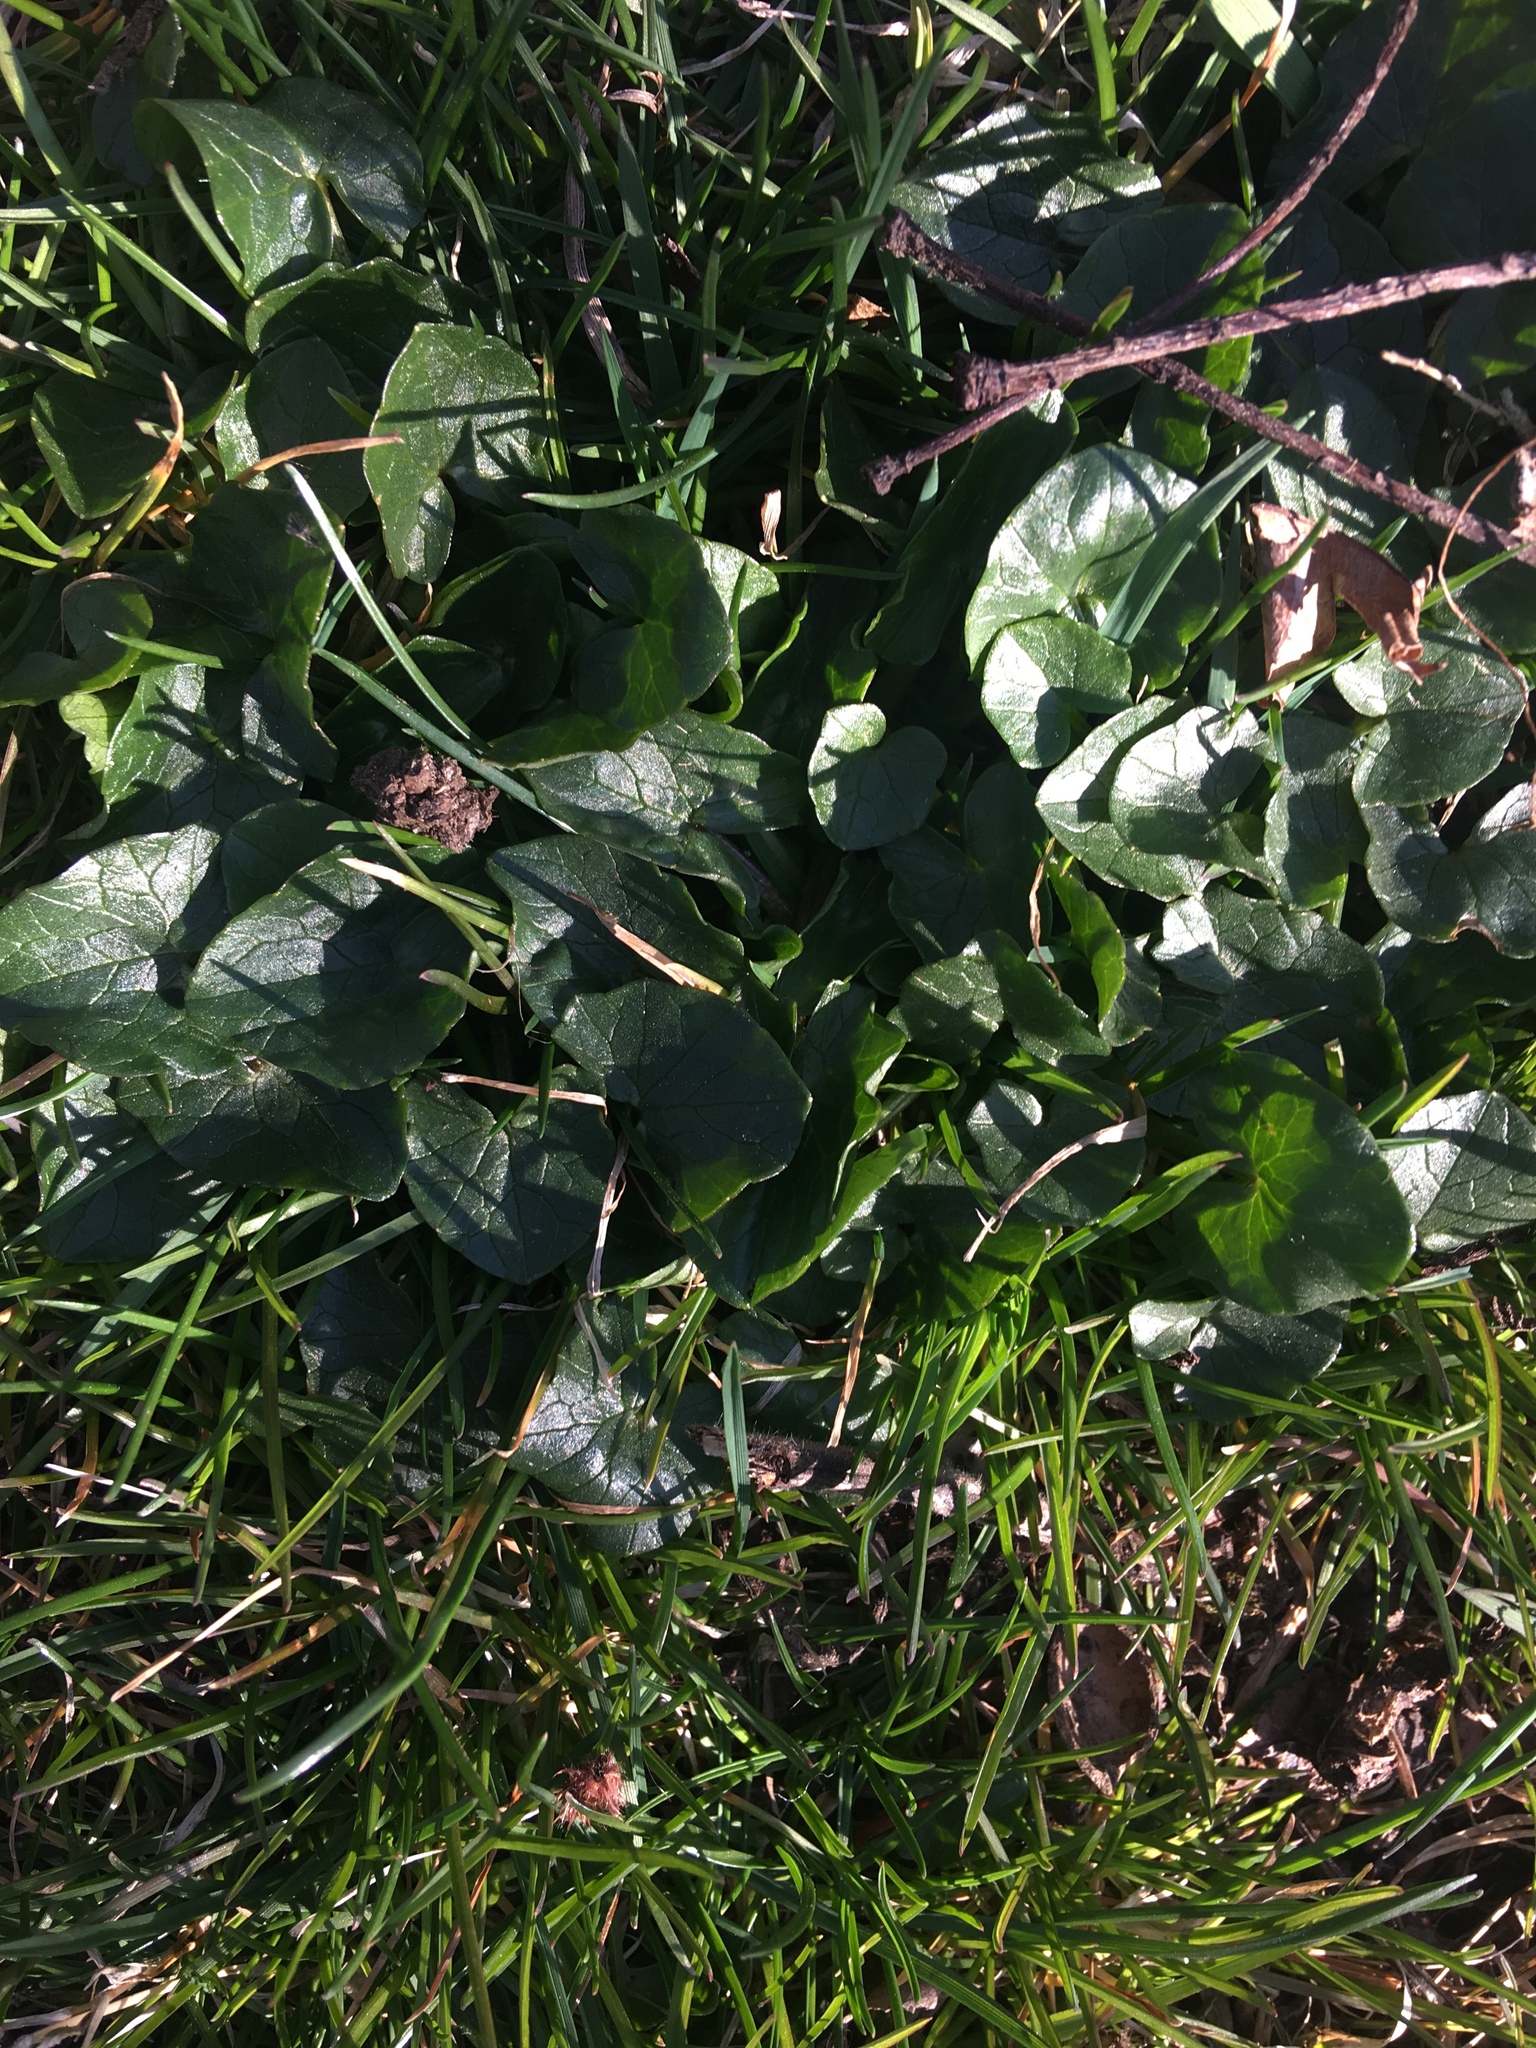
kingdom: Plantae
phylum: Tracheophyta
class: Magnoliopsida
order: Ranunculales
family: Ranunculaceae
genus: Ficaria
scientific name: Ficaria verna
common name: Lesser celandine
